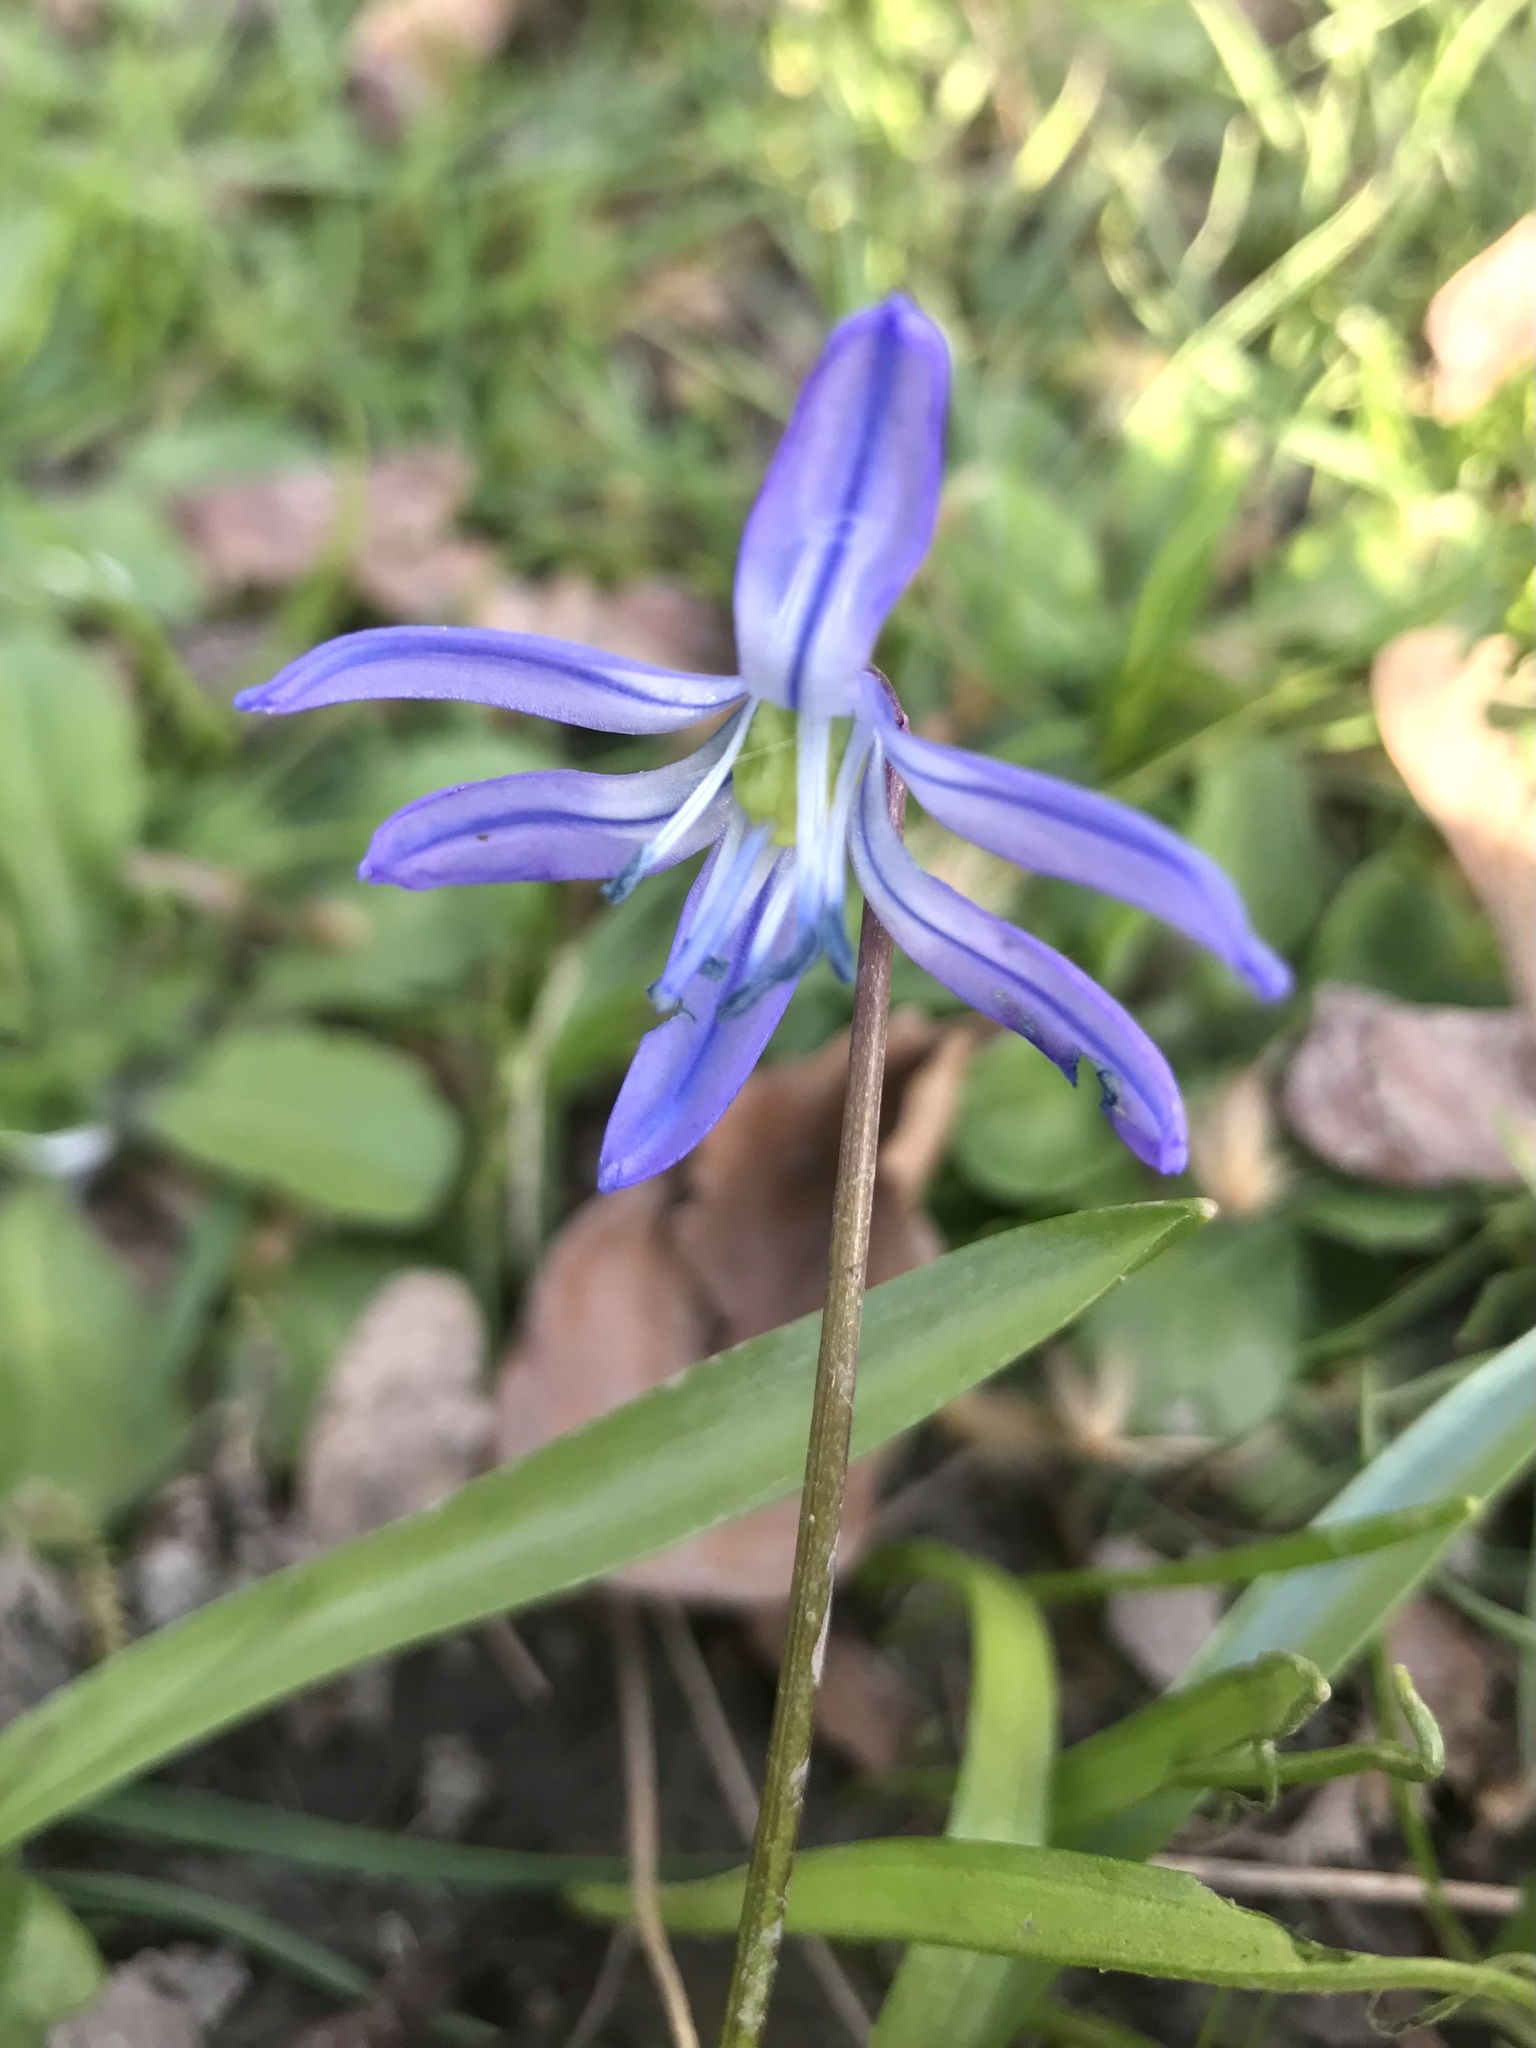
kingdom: Plantae
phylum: Tracheophyta
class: Liliopsida
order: Asparagales
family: Asparagaceae
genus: Scilla
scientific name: Scilla siberica
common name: Siberian squill
